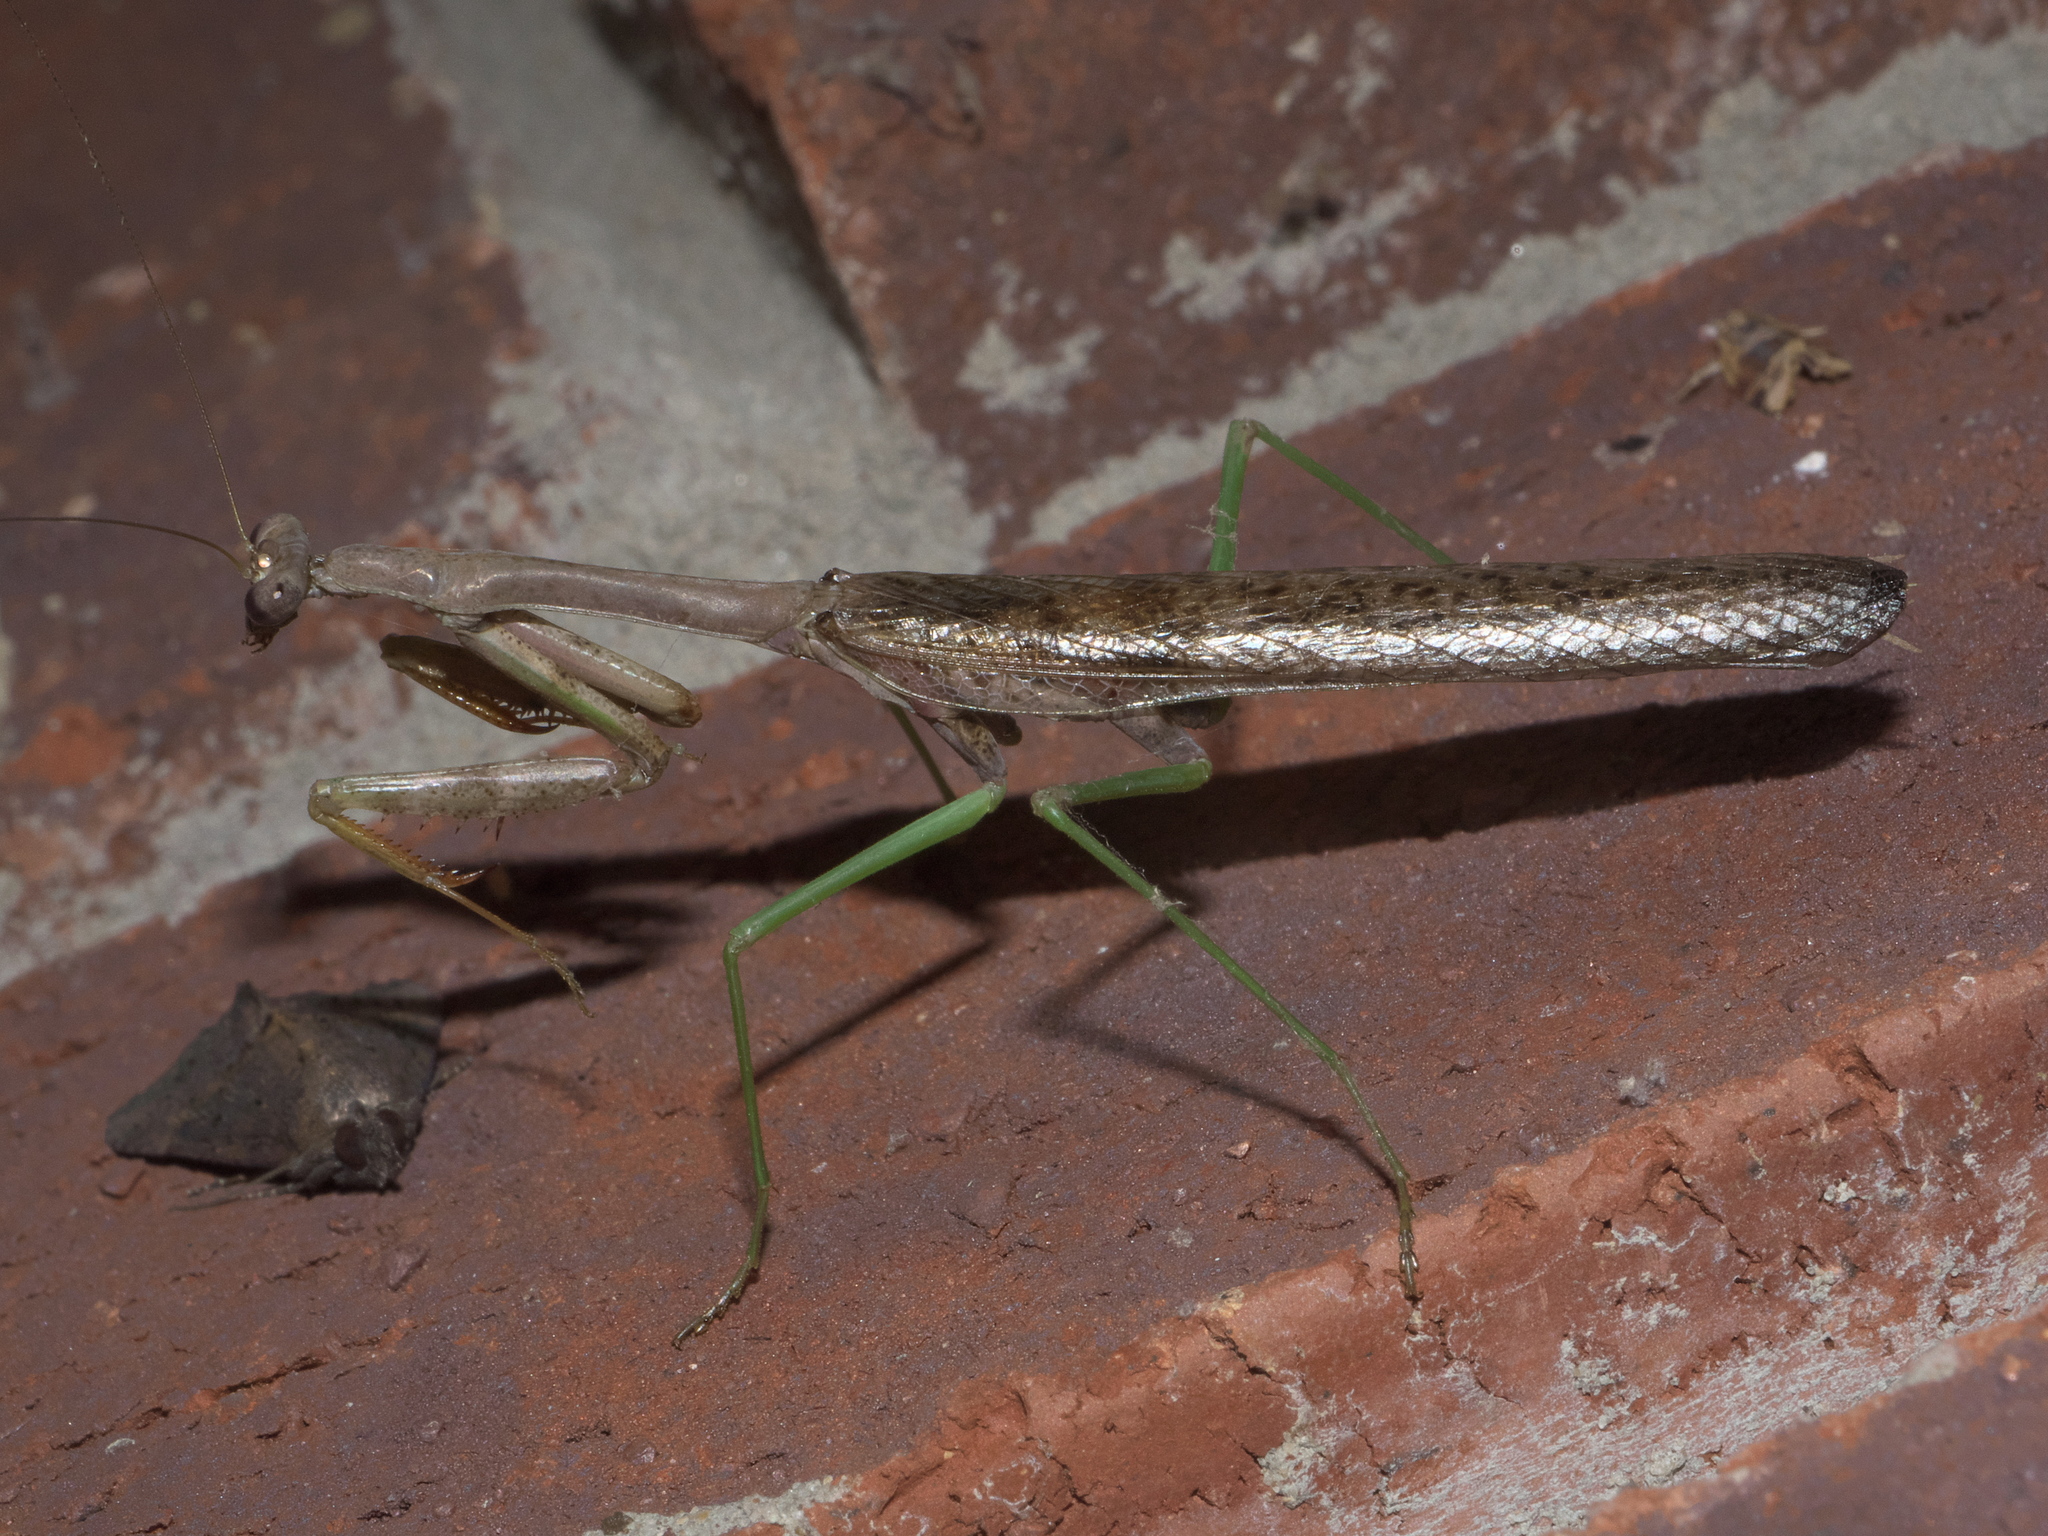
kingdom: Animalia
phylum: Arthropoda
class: Insecta
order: Mantodea
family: Mantidae
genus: Stagmomantis
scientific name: Stagmomantis carolina
